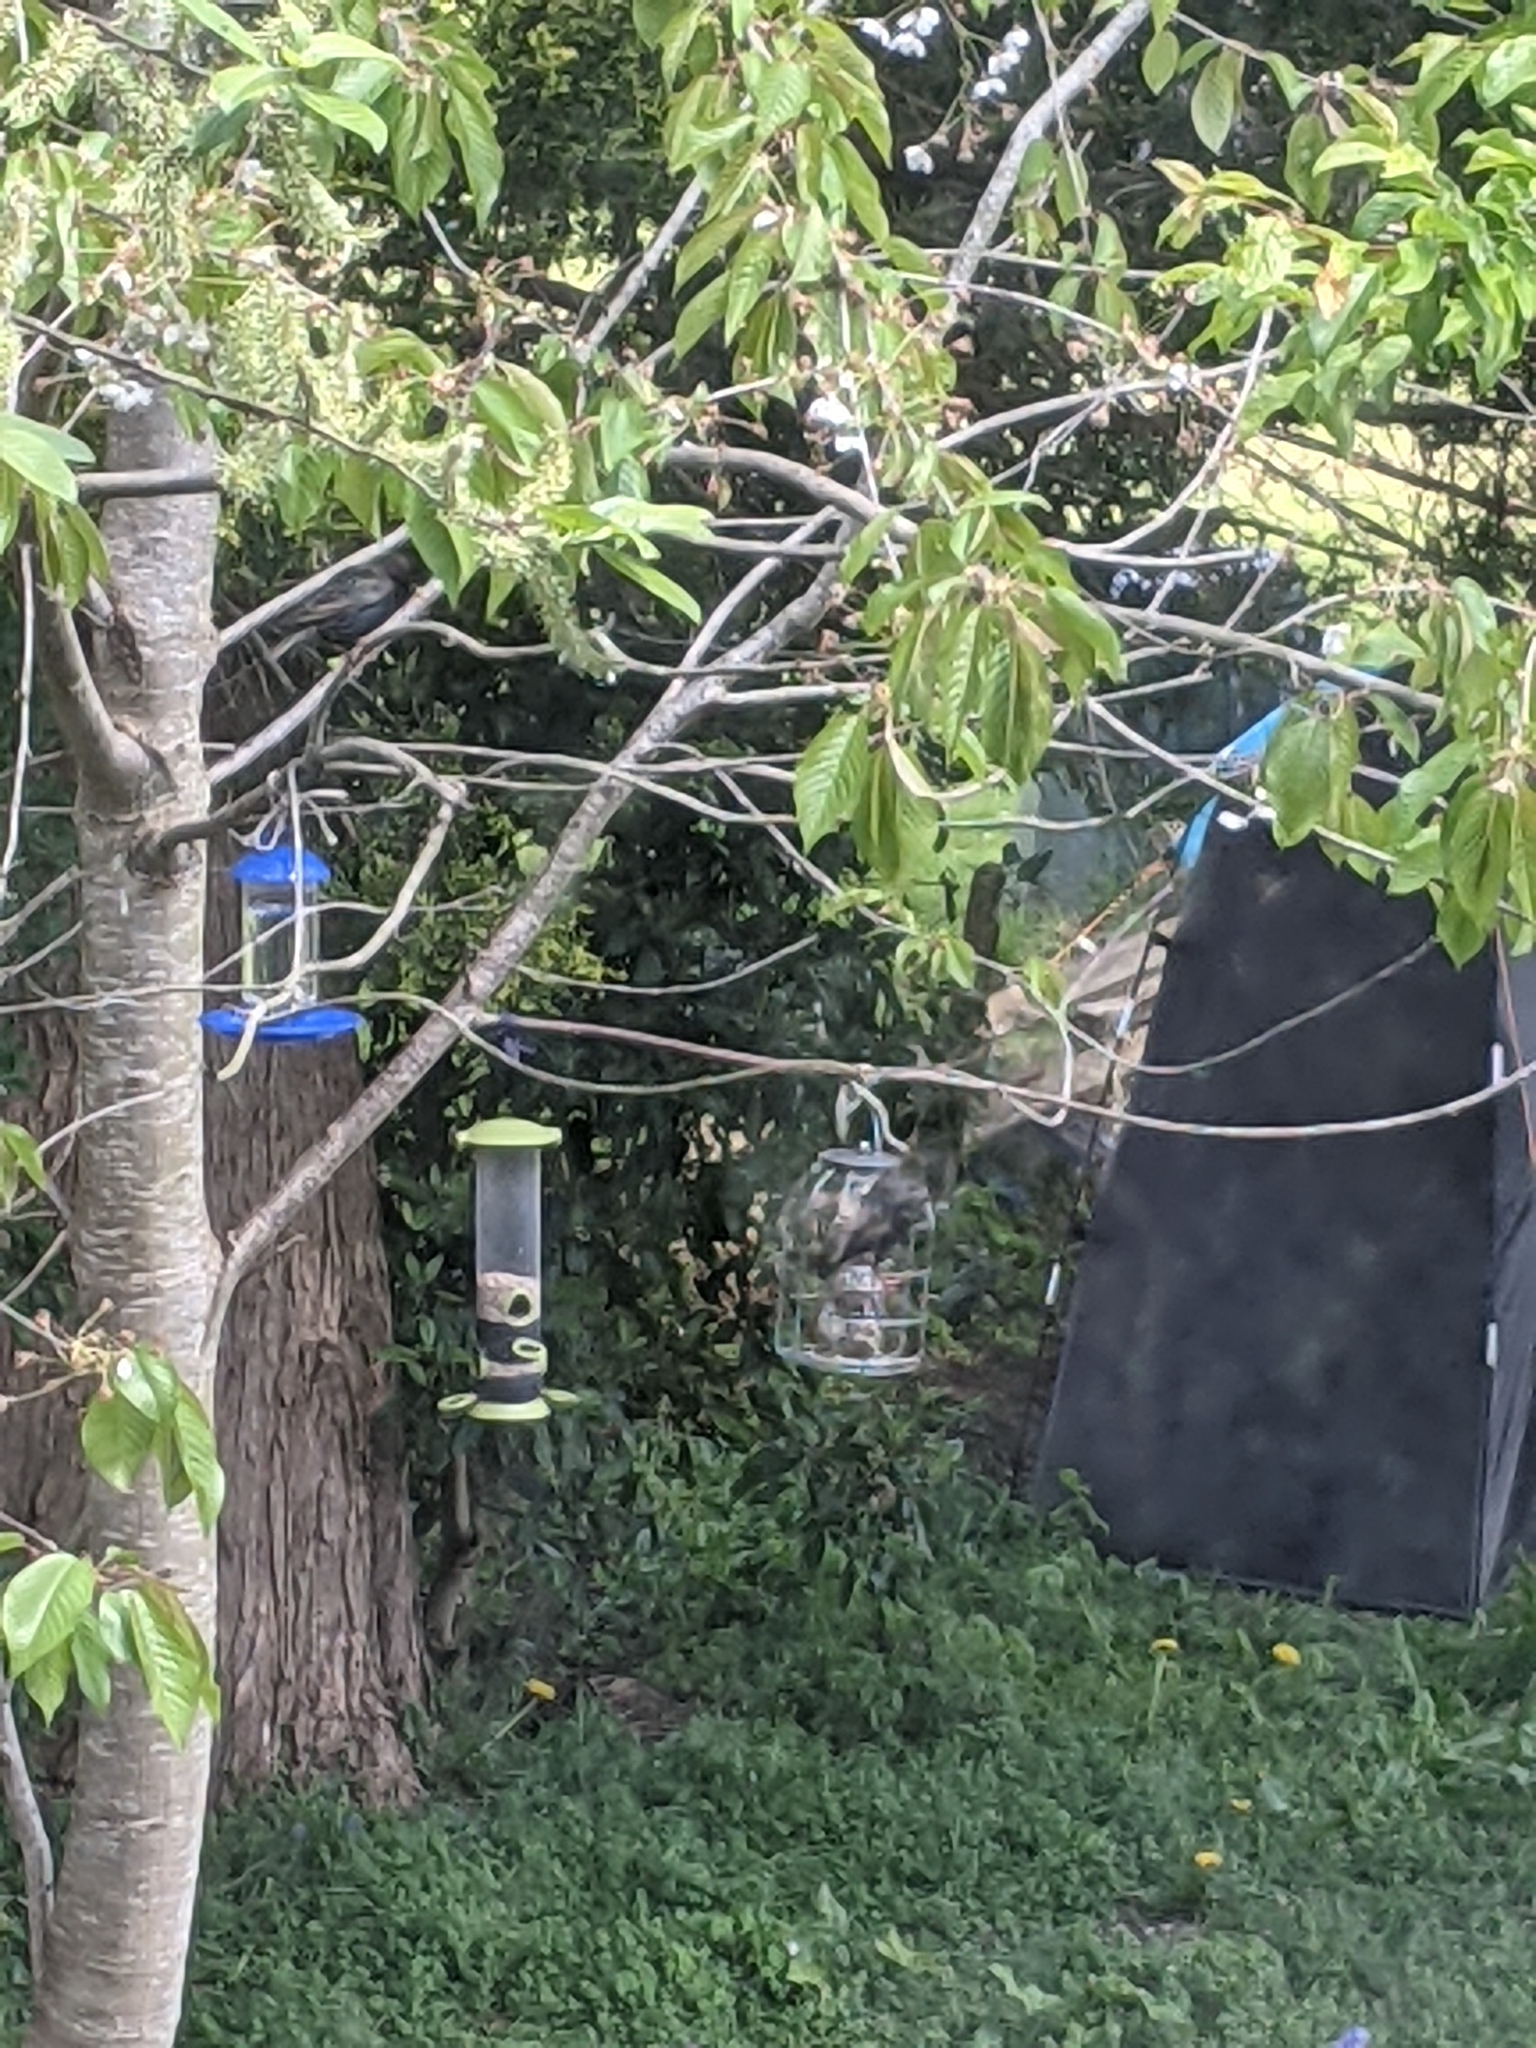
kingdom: Animalia
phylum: Chordata
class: Aves
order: Passeriformes
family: Sturnidae
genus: Sturnus
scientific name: Sturnus vulgaris
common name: Common starling
